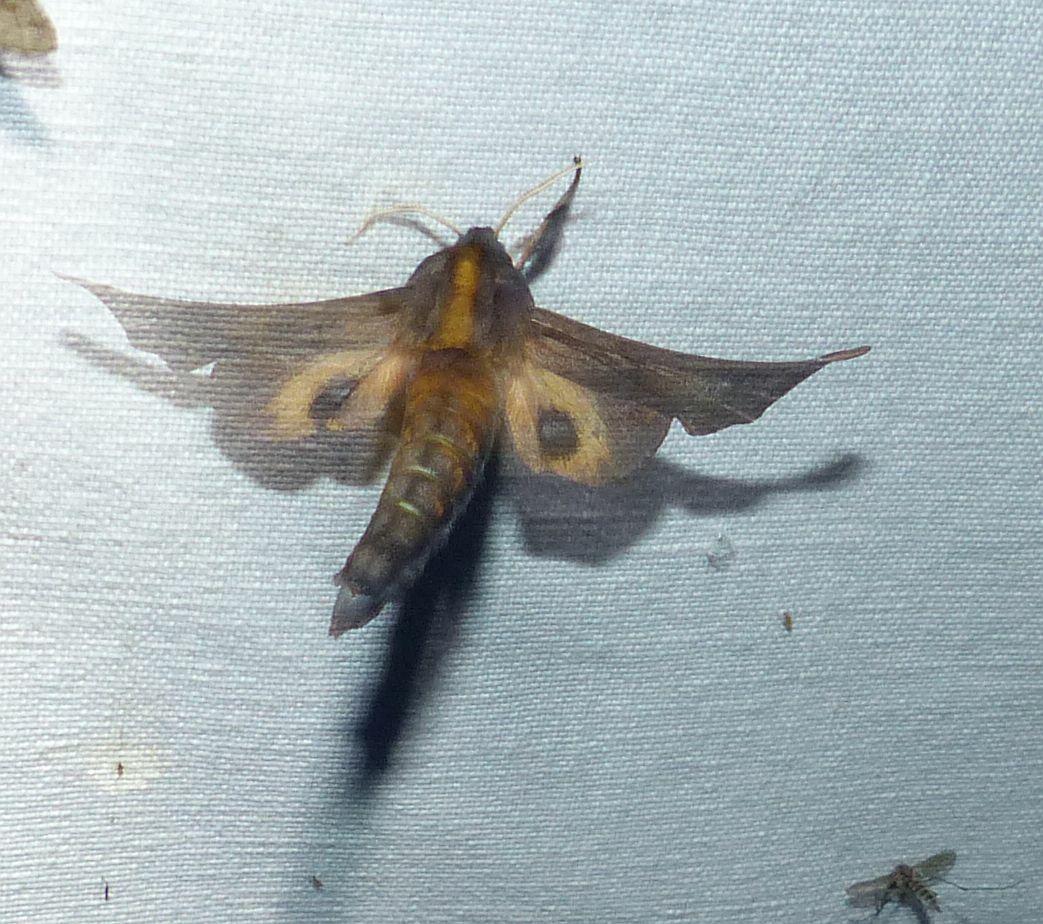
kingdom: Animalia
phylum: Arthropoda
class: Insecta
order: Lepidoptera
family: Sphingidae
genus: Paonias
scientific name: Paonias myops
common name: Small-eyed sphinx
